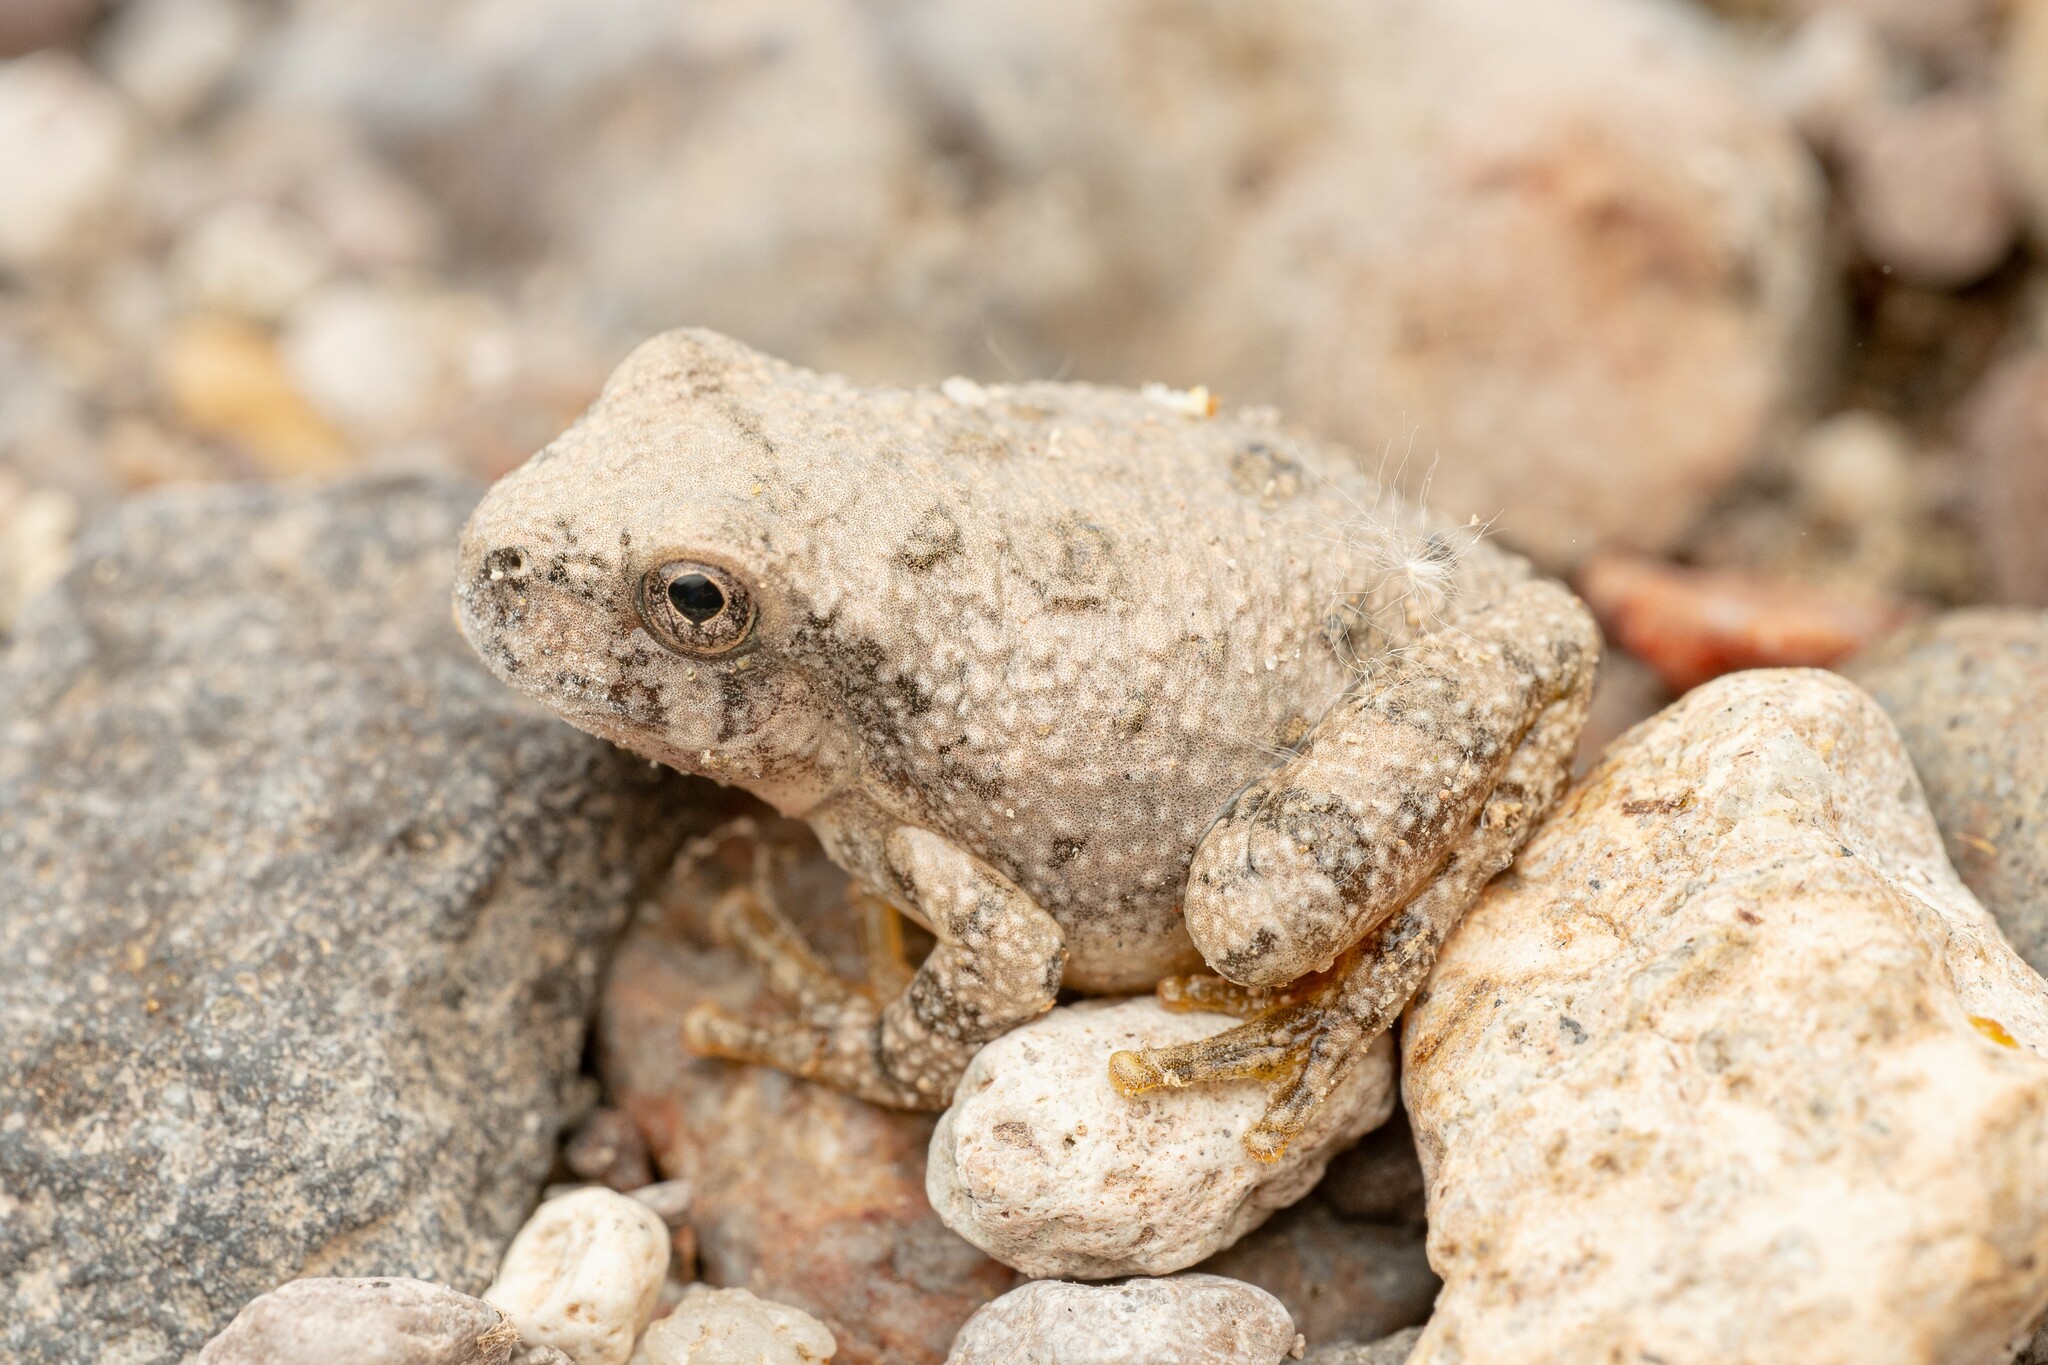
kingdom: Animalia
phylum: Chordata
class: Amphibia
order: Anura
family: Hylidae
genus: Dryophytes
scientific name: Dryophytes arenicolor
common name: Canyon treefrog
